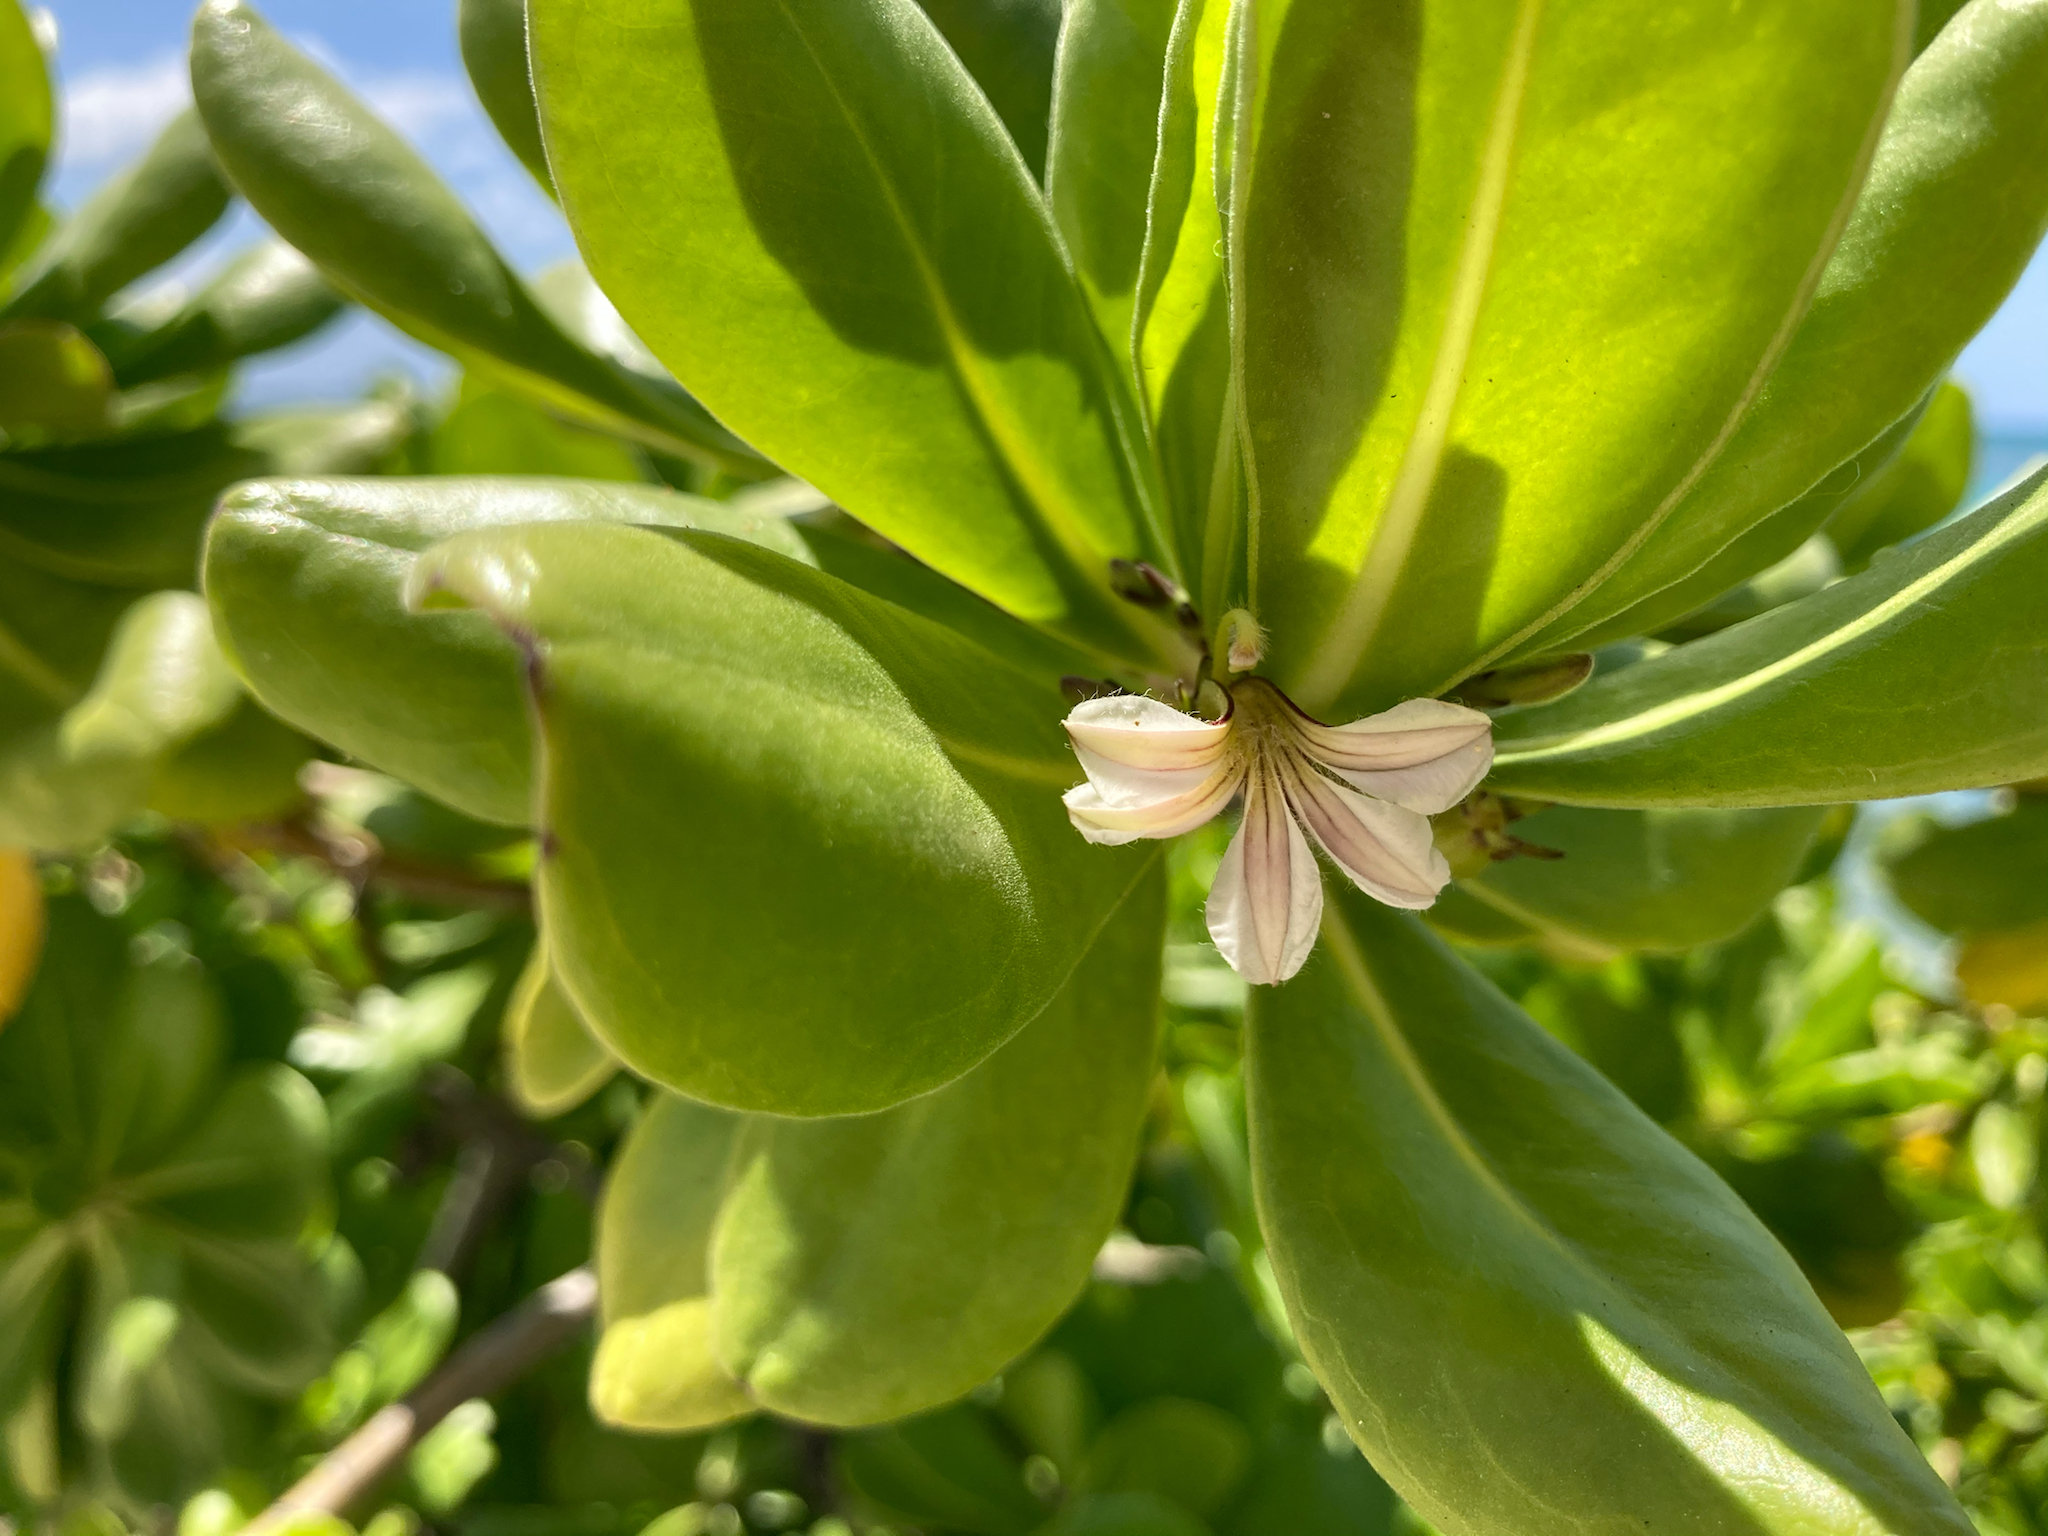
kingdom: Plantae
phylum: Tracheophyta
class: Magnoliopsida
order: Asterales
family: Goodeniaceae
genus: Scaevola
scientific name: Scaevola taccada
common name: Sea lettucetree
